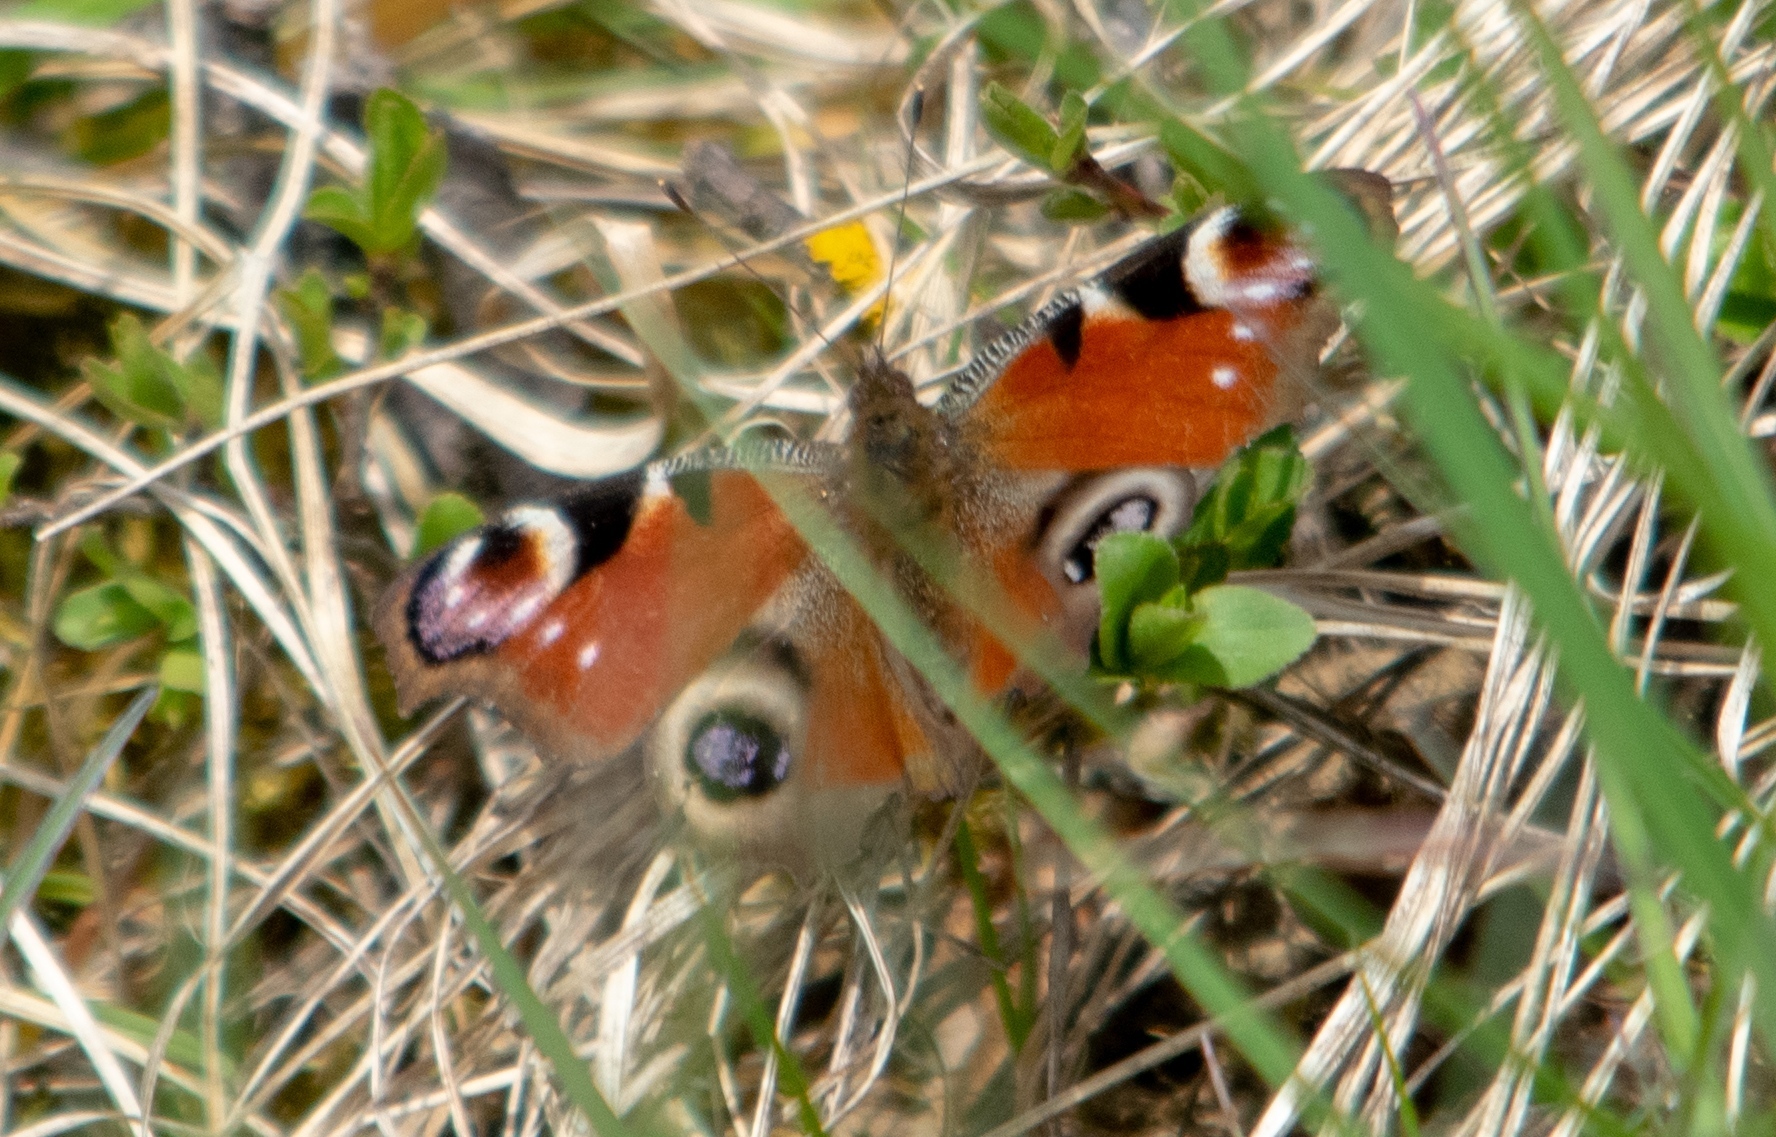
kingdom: Animalia
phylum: Arthropoda
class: Insecta
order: Lepidoptera
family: Nymphalidae
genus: Aglais
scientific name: Aglais io
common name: Peacock
